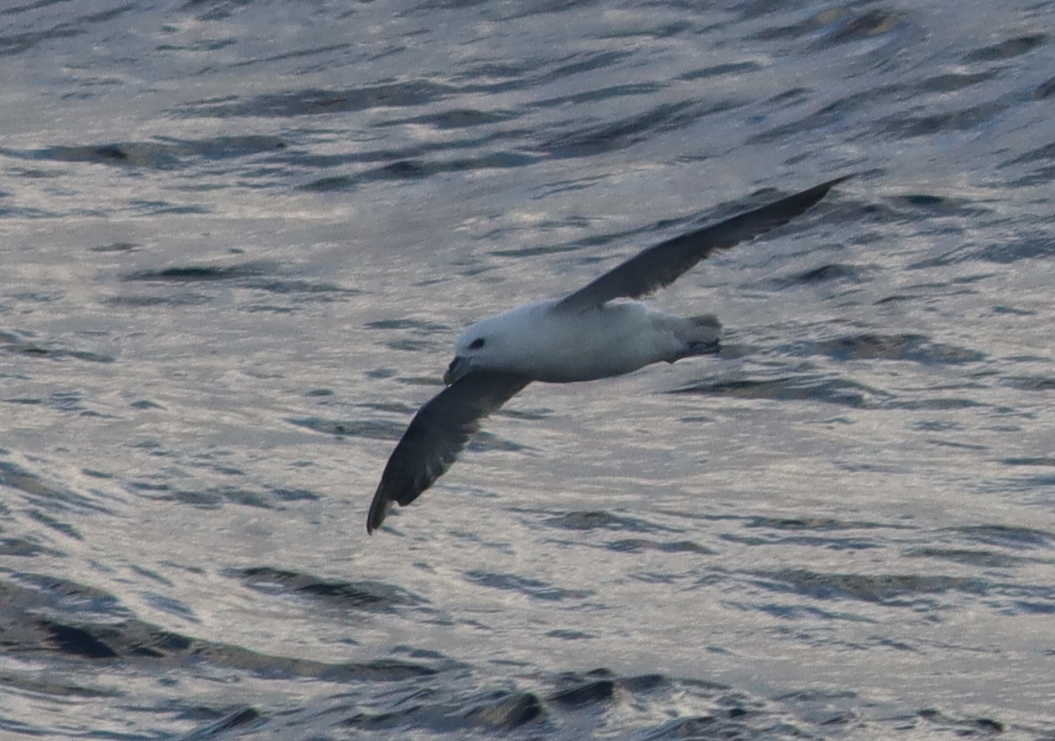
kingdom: Animalia
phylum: Chordata
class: Aves
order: Procellariiformes
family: Procellariidae
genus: Fulmarus
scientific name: Fulmarus glacialis
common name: Northern fulmar
